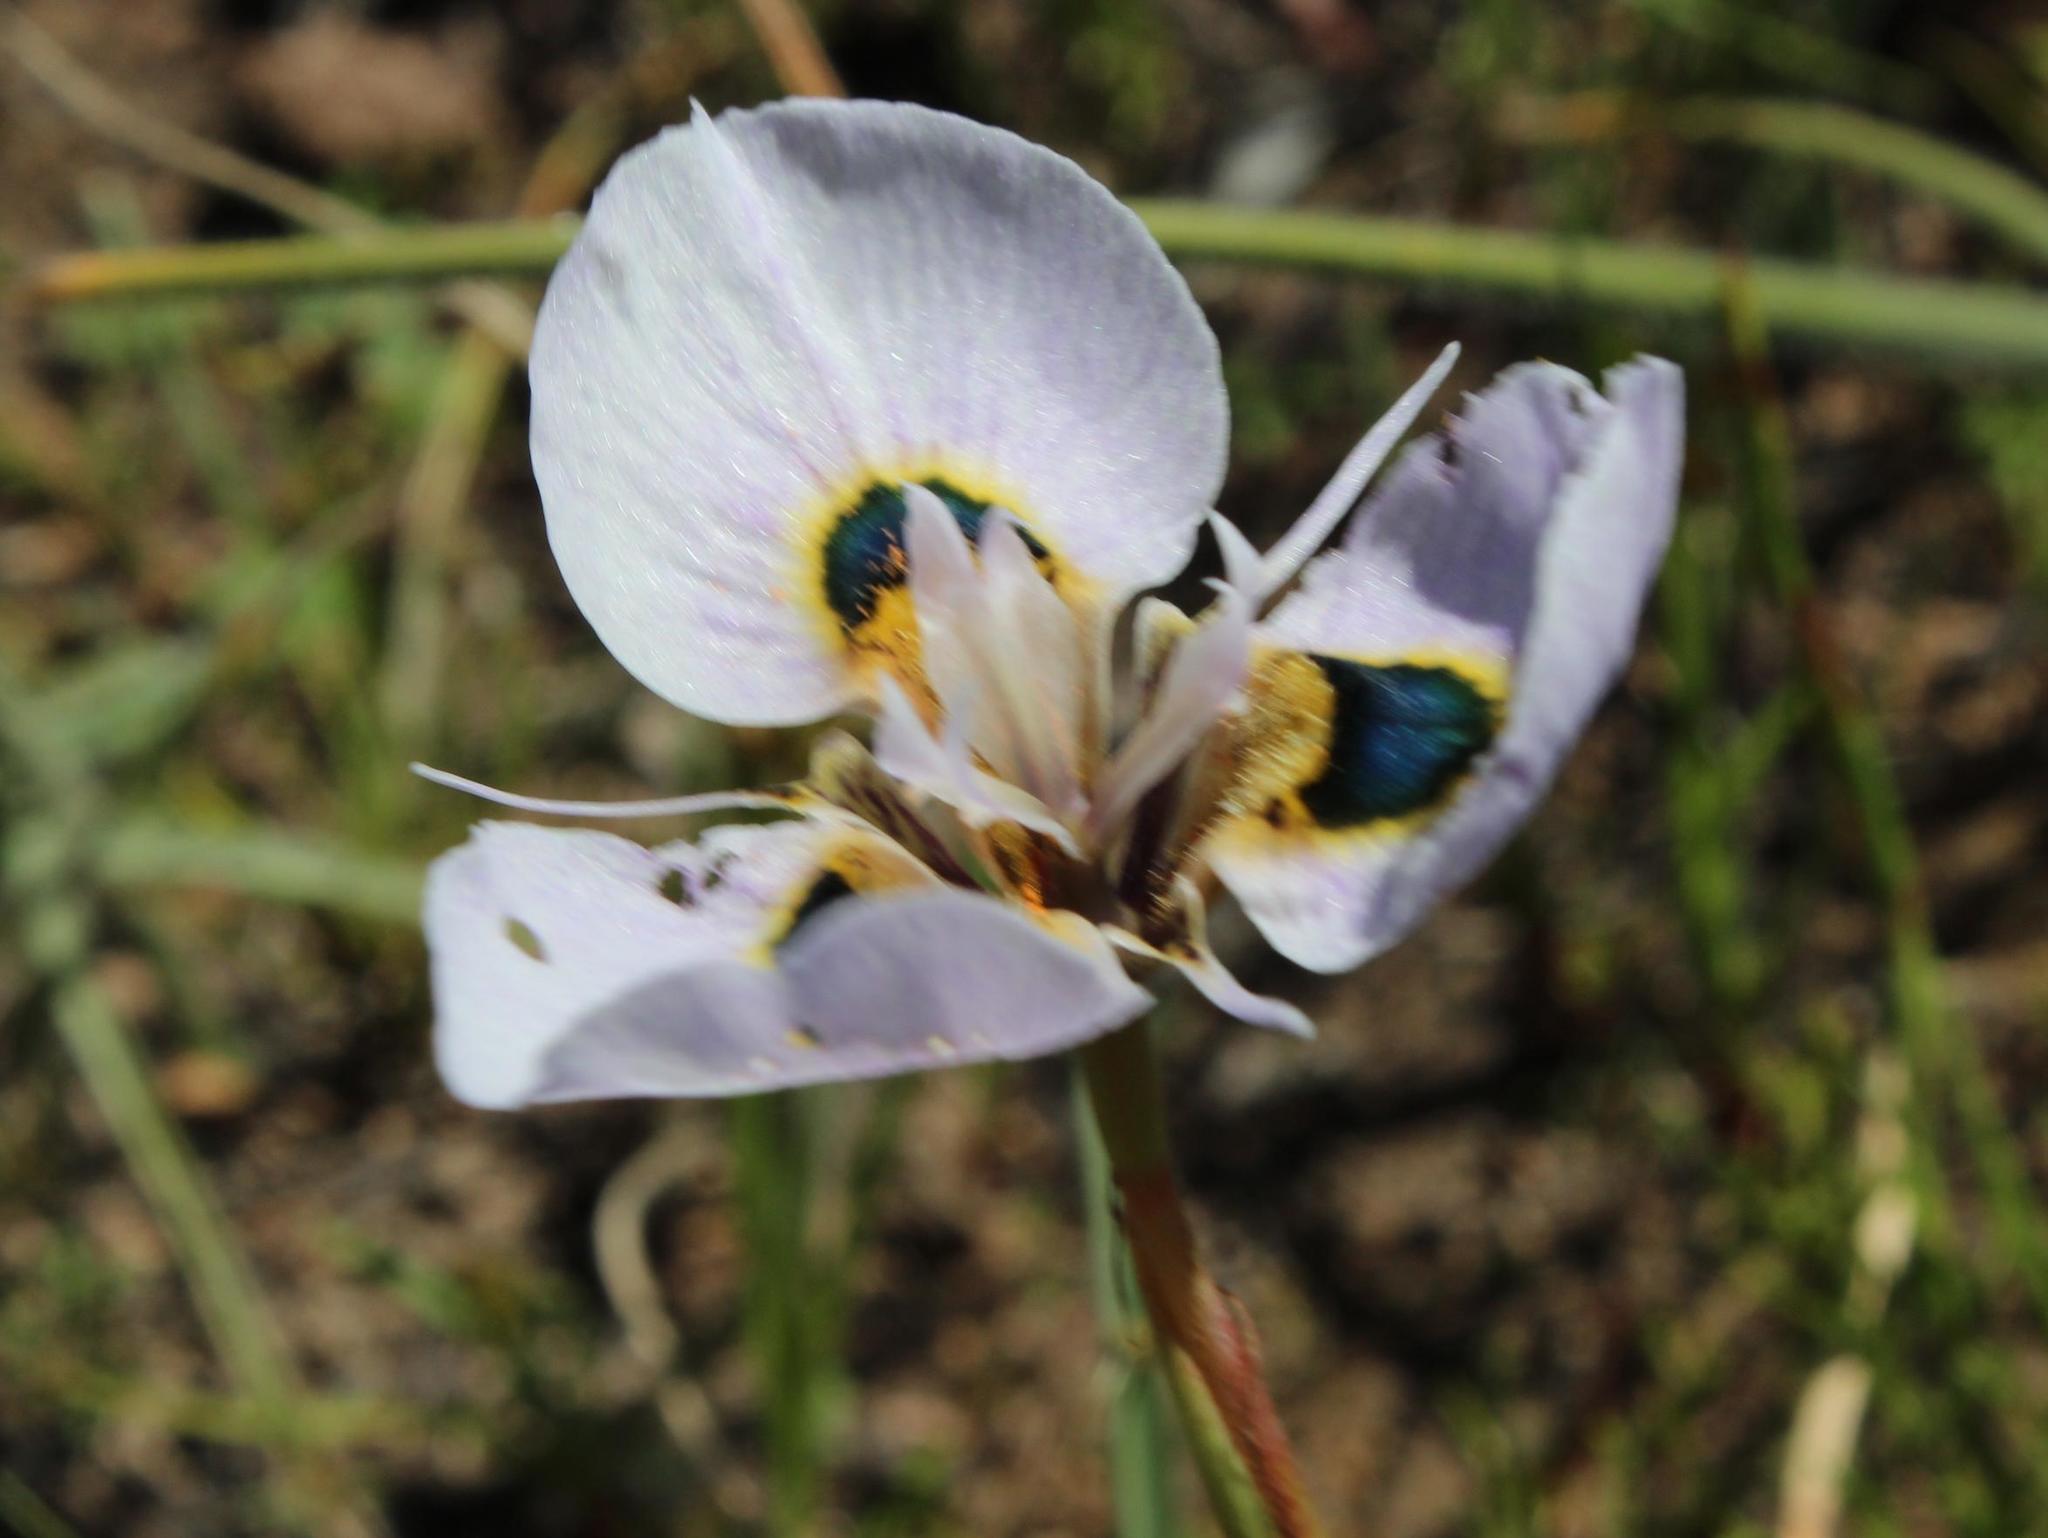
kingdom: Plantae
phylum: Tracheophyta
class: Liliopsida
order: Asparagales
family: Iridaceae
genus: Moraea
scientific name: Moraea villosa
